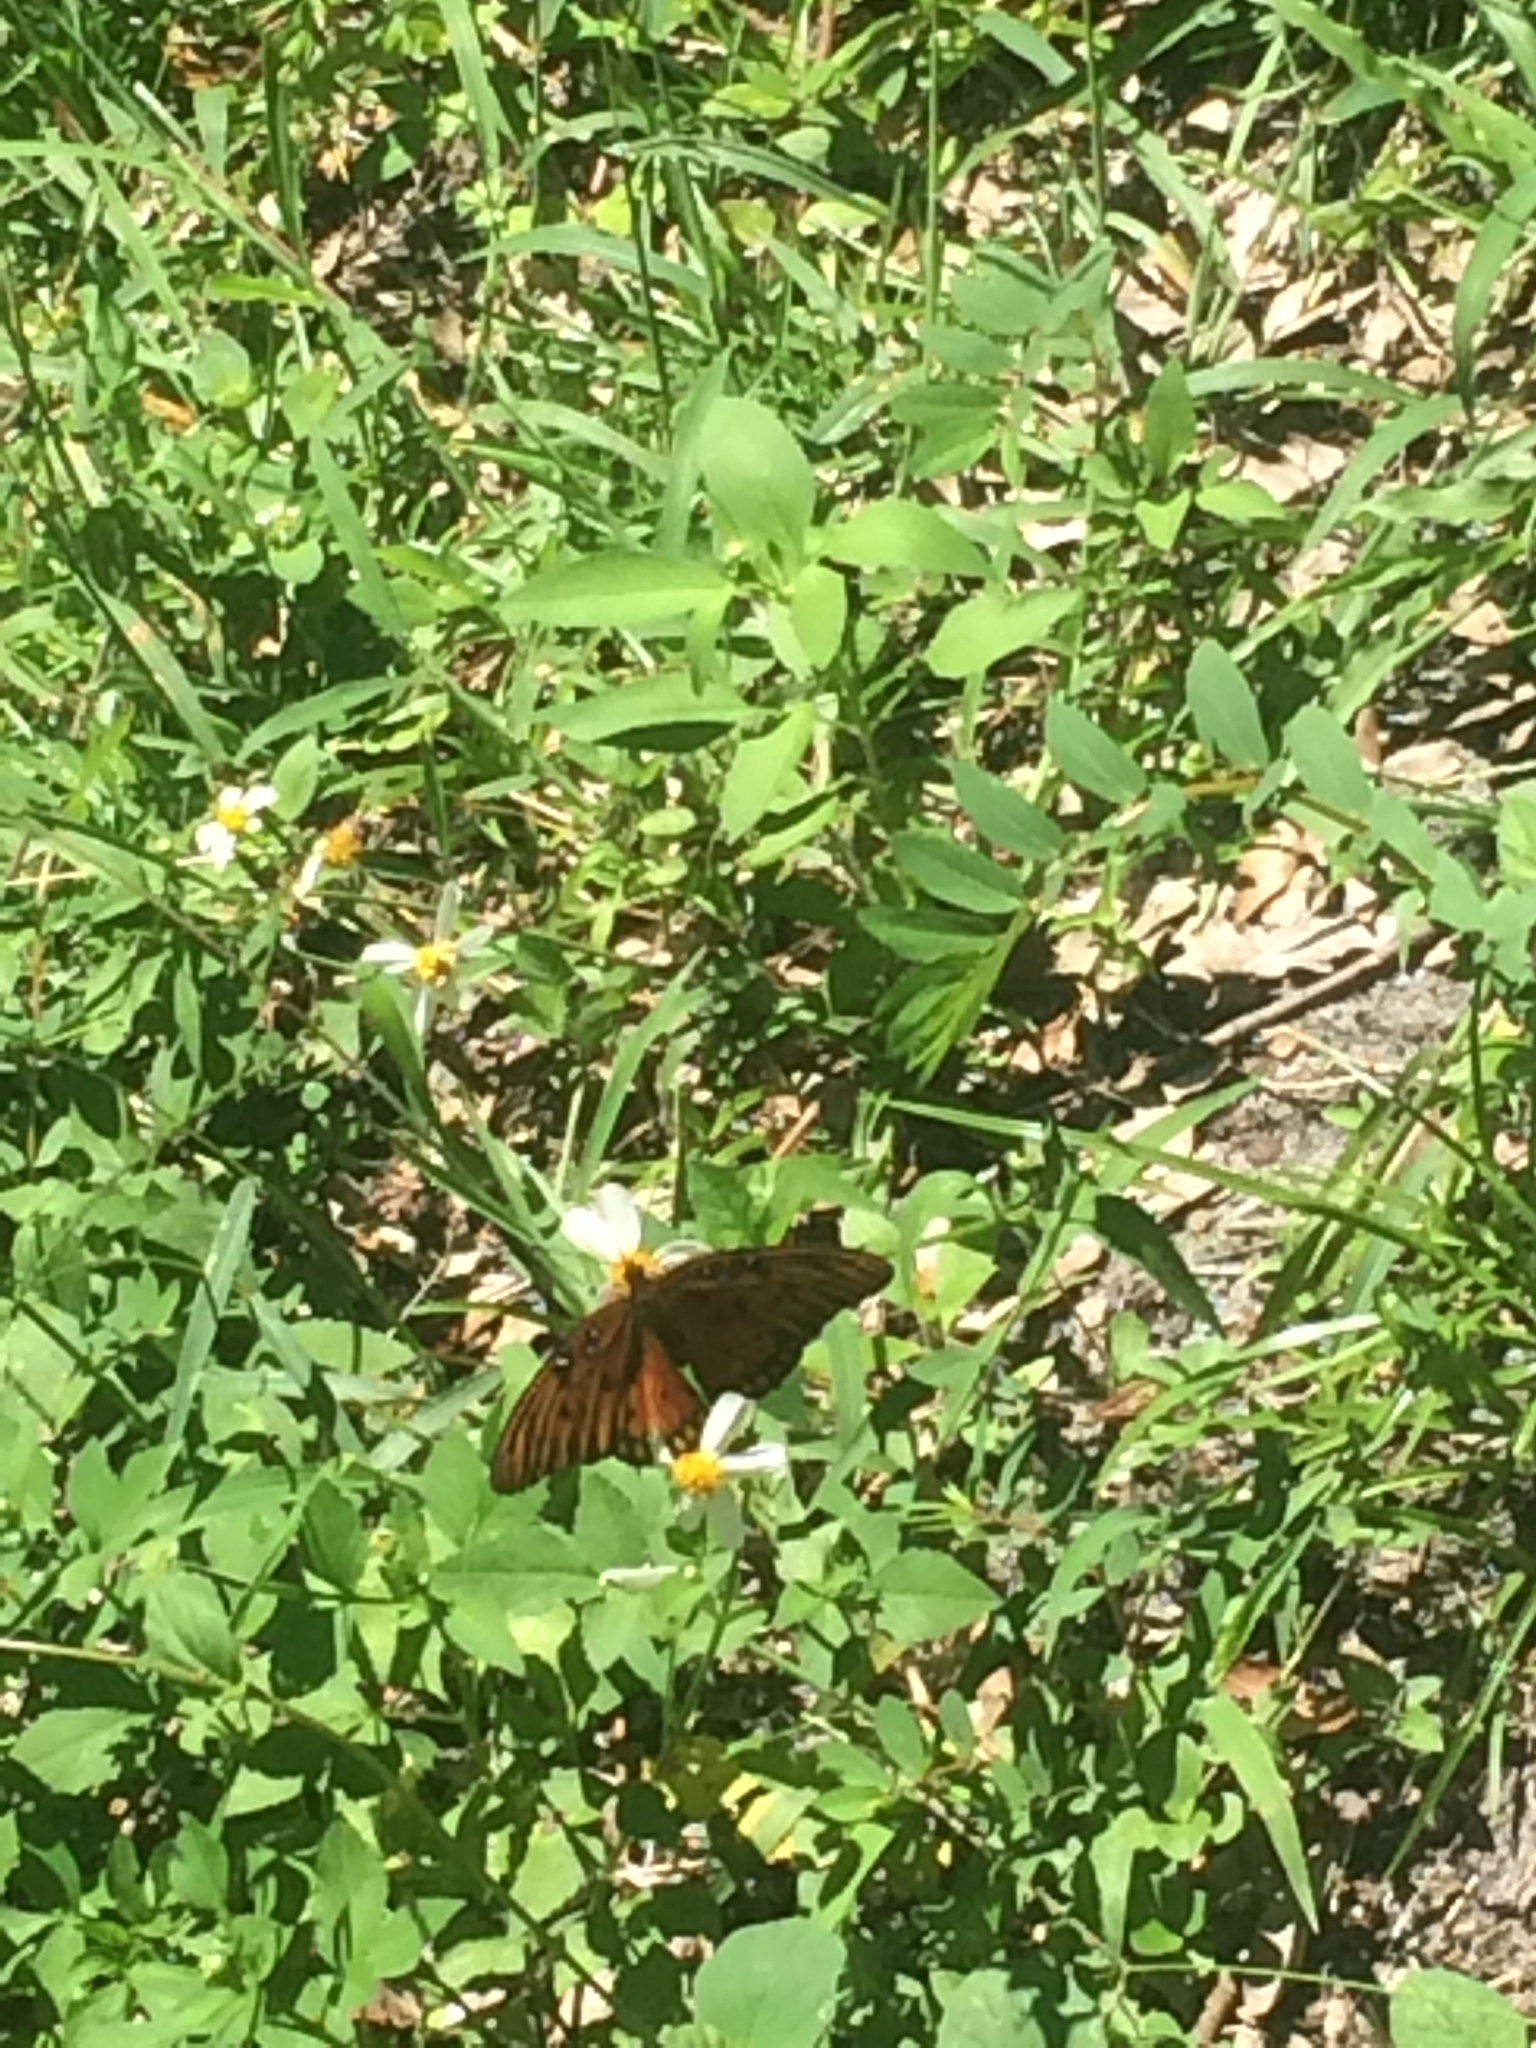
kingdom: Animalia
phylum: Arthropoda
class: Insecta
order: Lepidoptera
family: Nymphalidae
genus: Dione
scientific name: Dione vanillae
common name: Gulf fritillary
